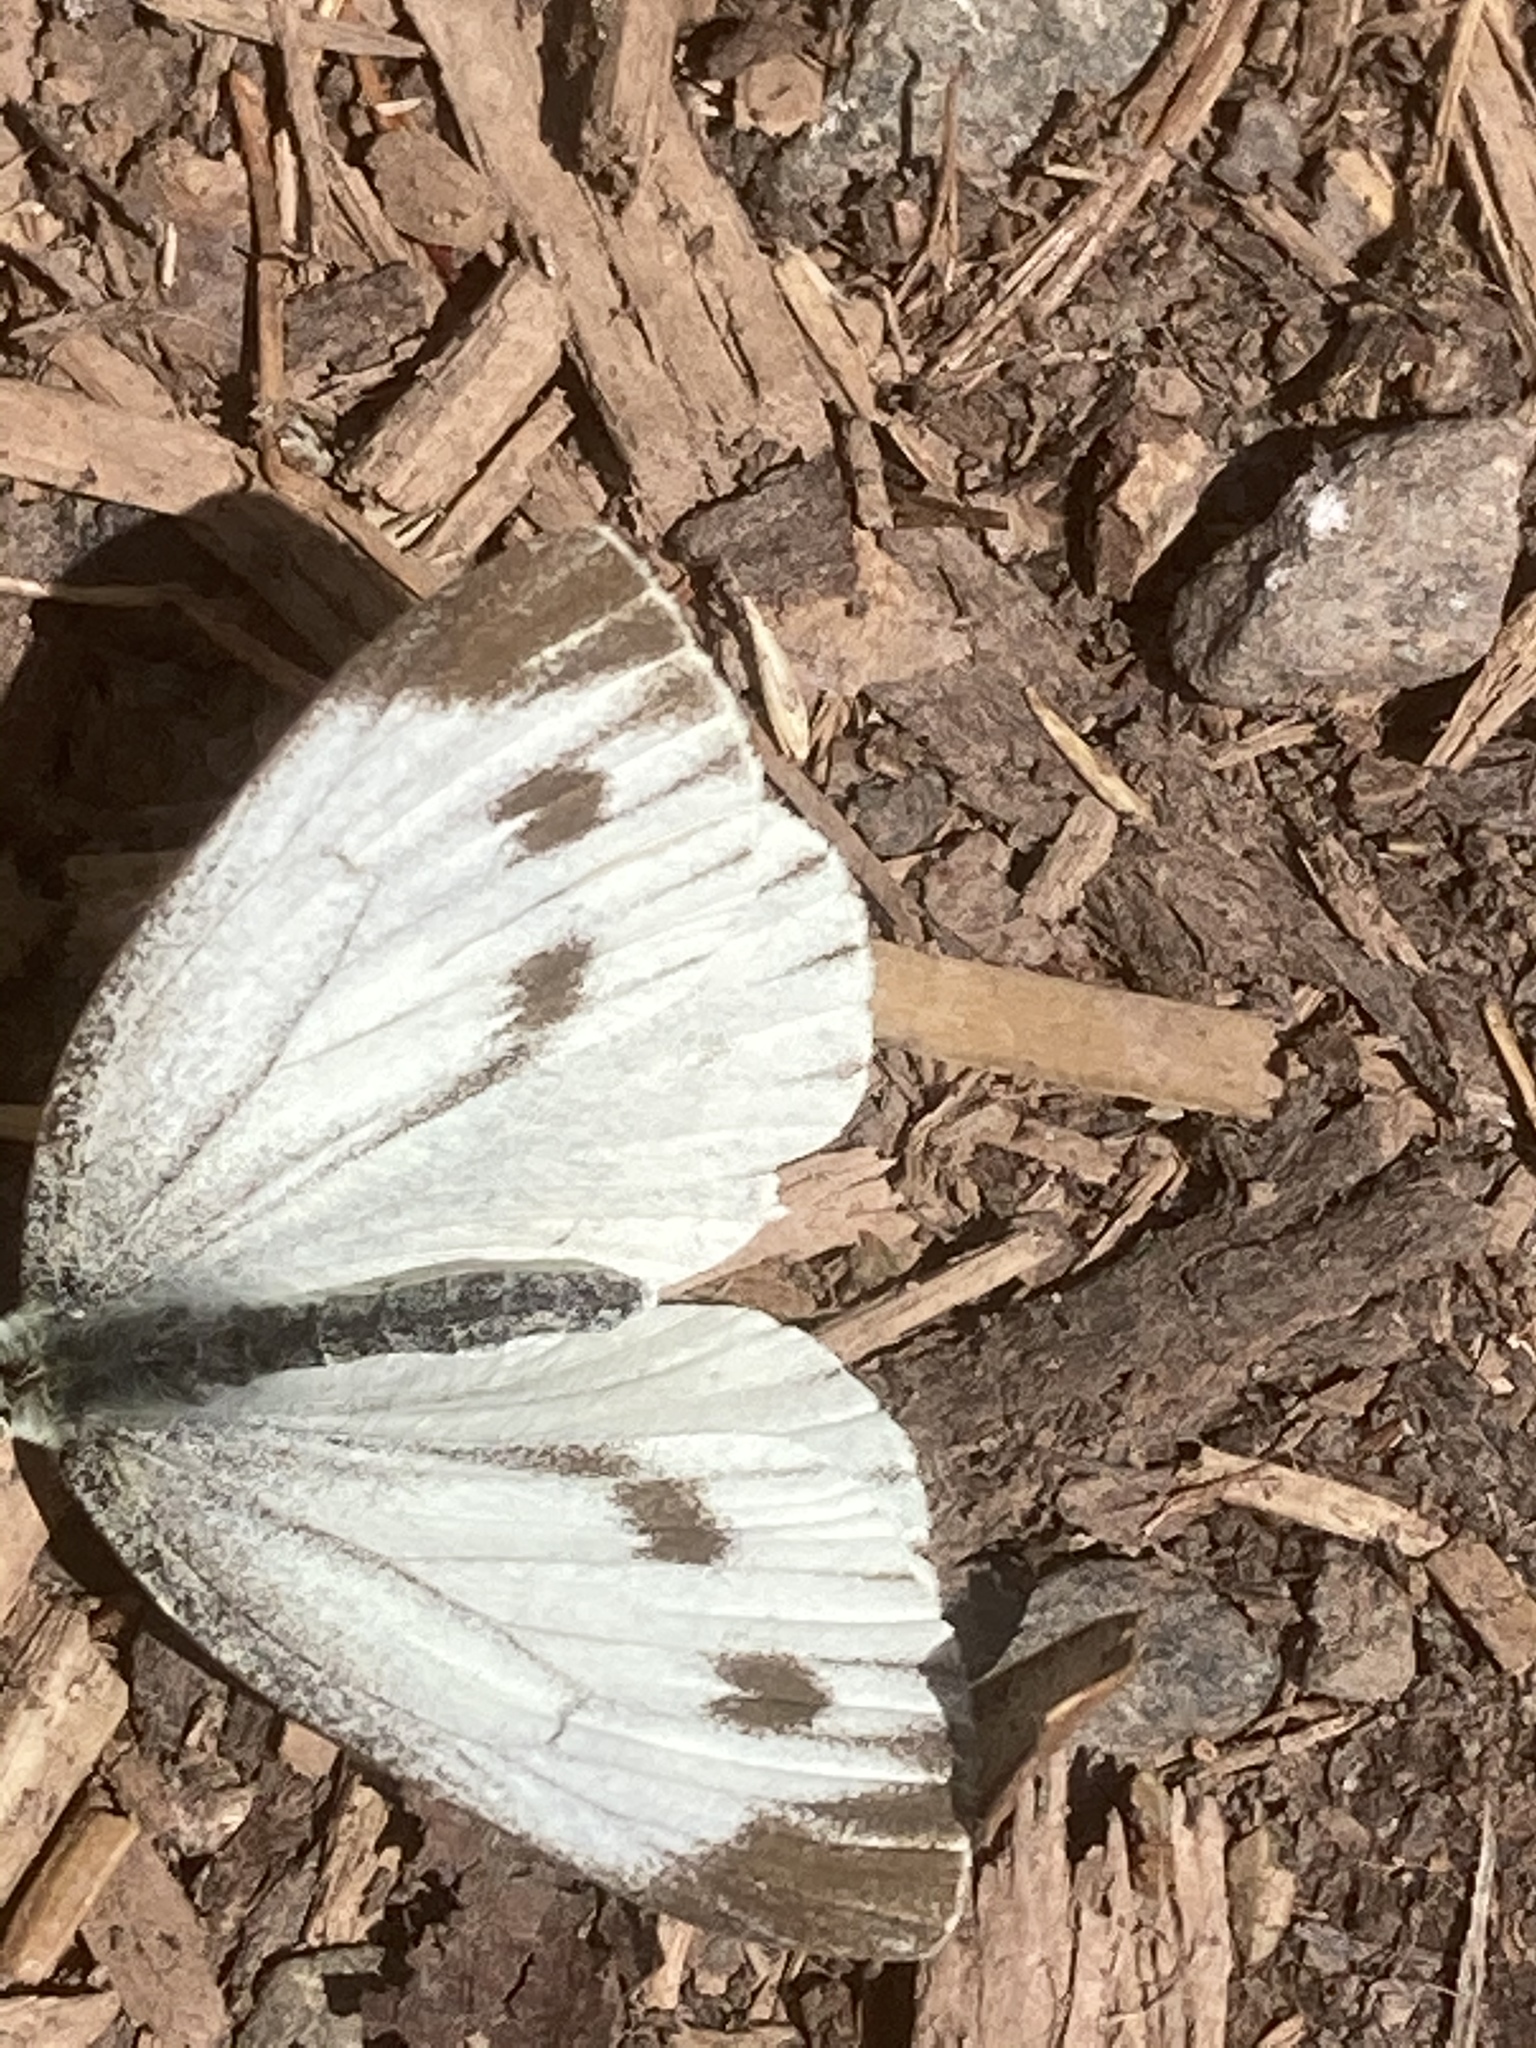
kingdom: Animalia
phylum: Arthropoda
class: Insecta
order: Lepidoptera
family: Pieridae
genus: Pieris
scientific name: Pieris napi
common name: Green-veined white
